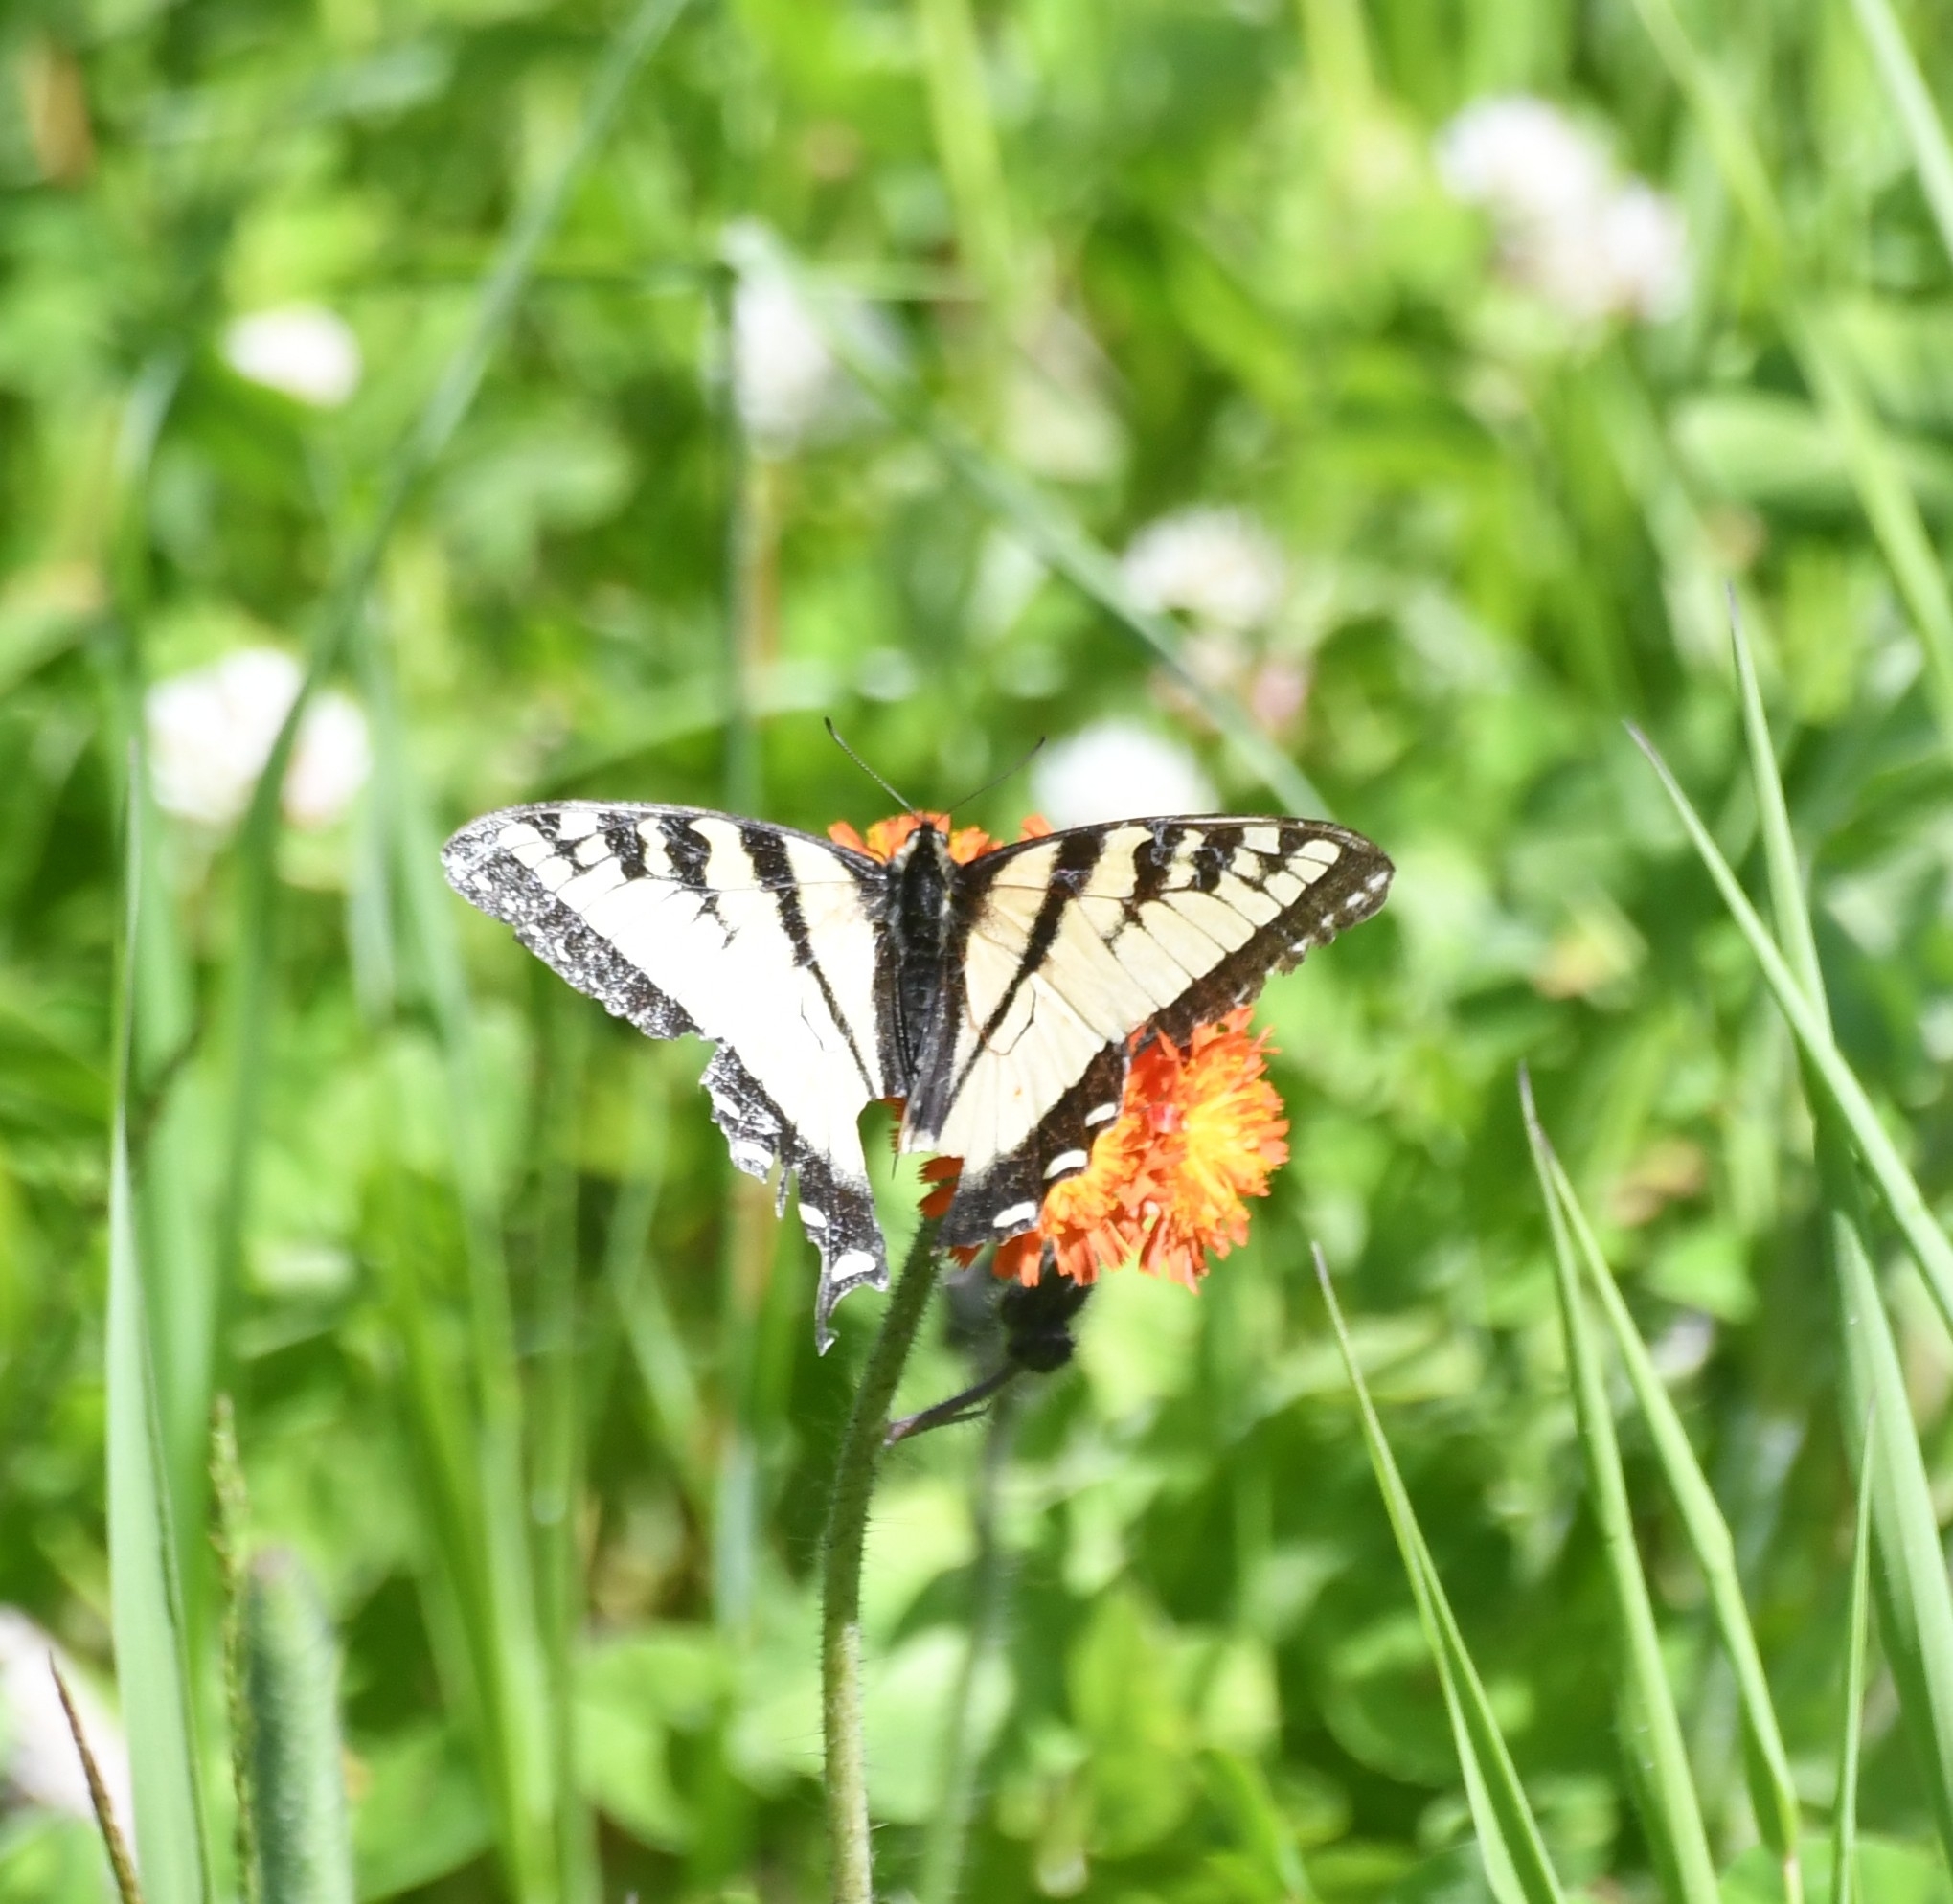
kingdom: Animalia
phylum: Arthropoda
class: Insecta
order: Lepidoptera
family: Papilionidae
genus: Papilio
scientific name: Papilio canadensis
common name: Canadian tiger swallowtail
